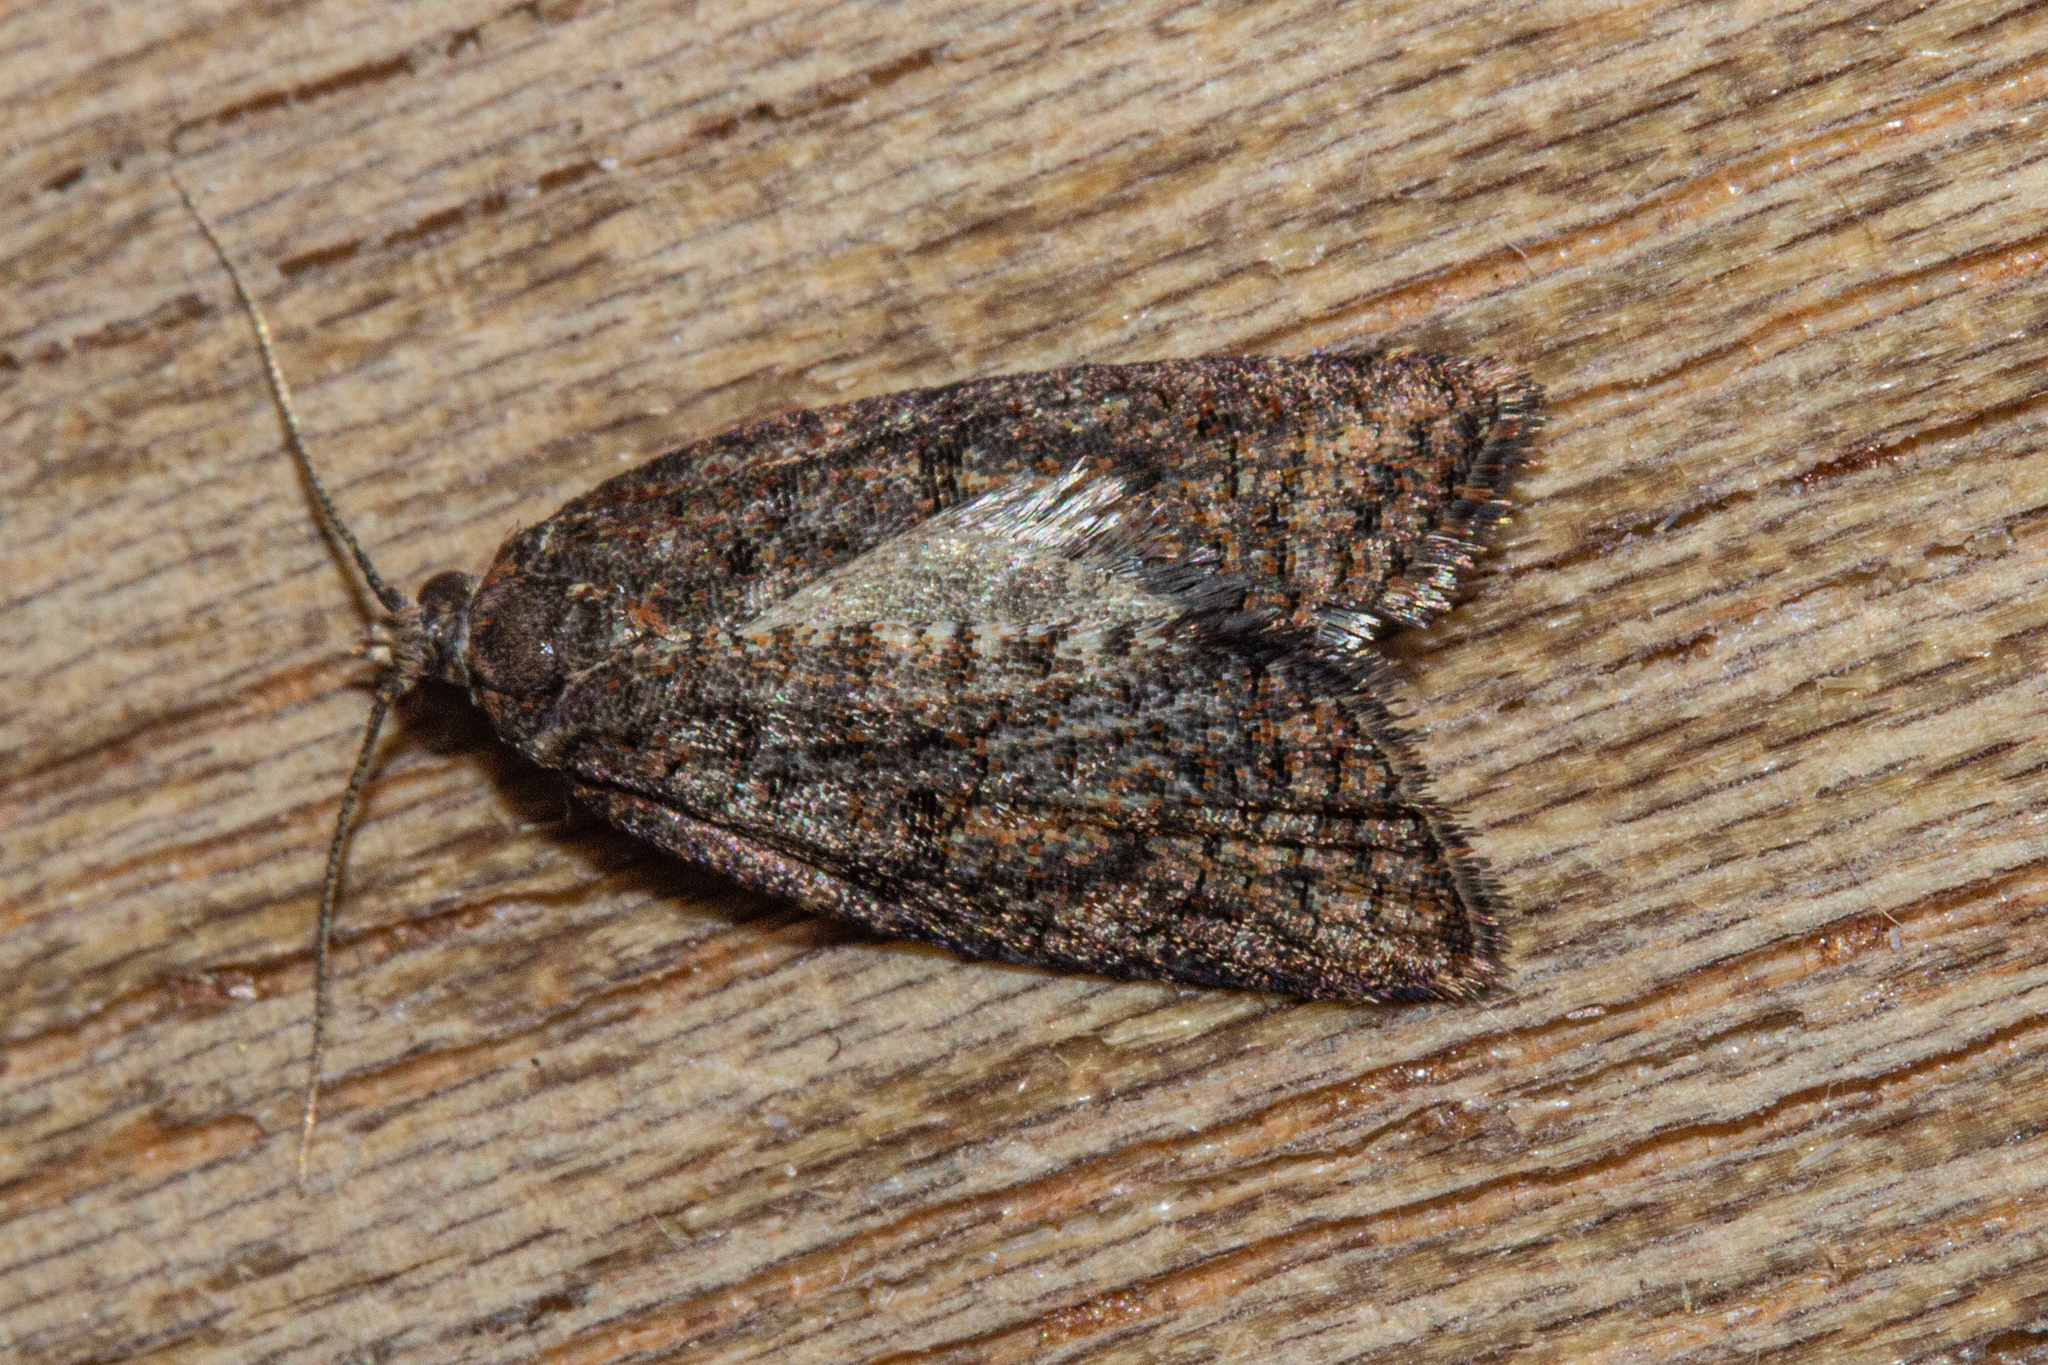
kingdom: Animalia
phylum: Arthropoda
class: Insecta
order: Lepidoptera
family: Tortricidae
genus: Capua
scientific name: Capua intractana
